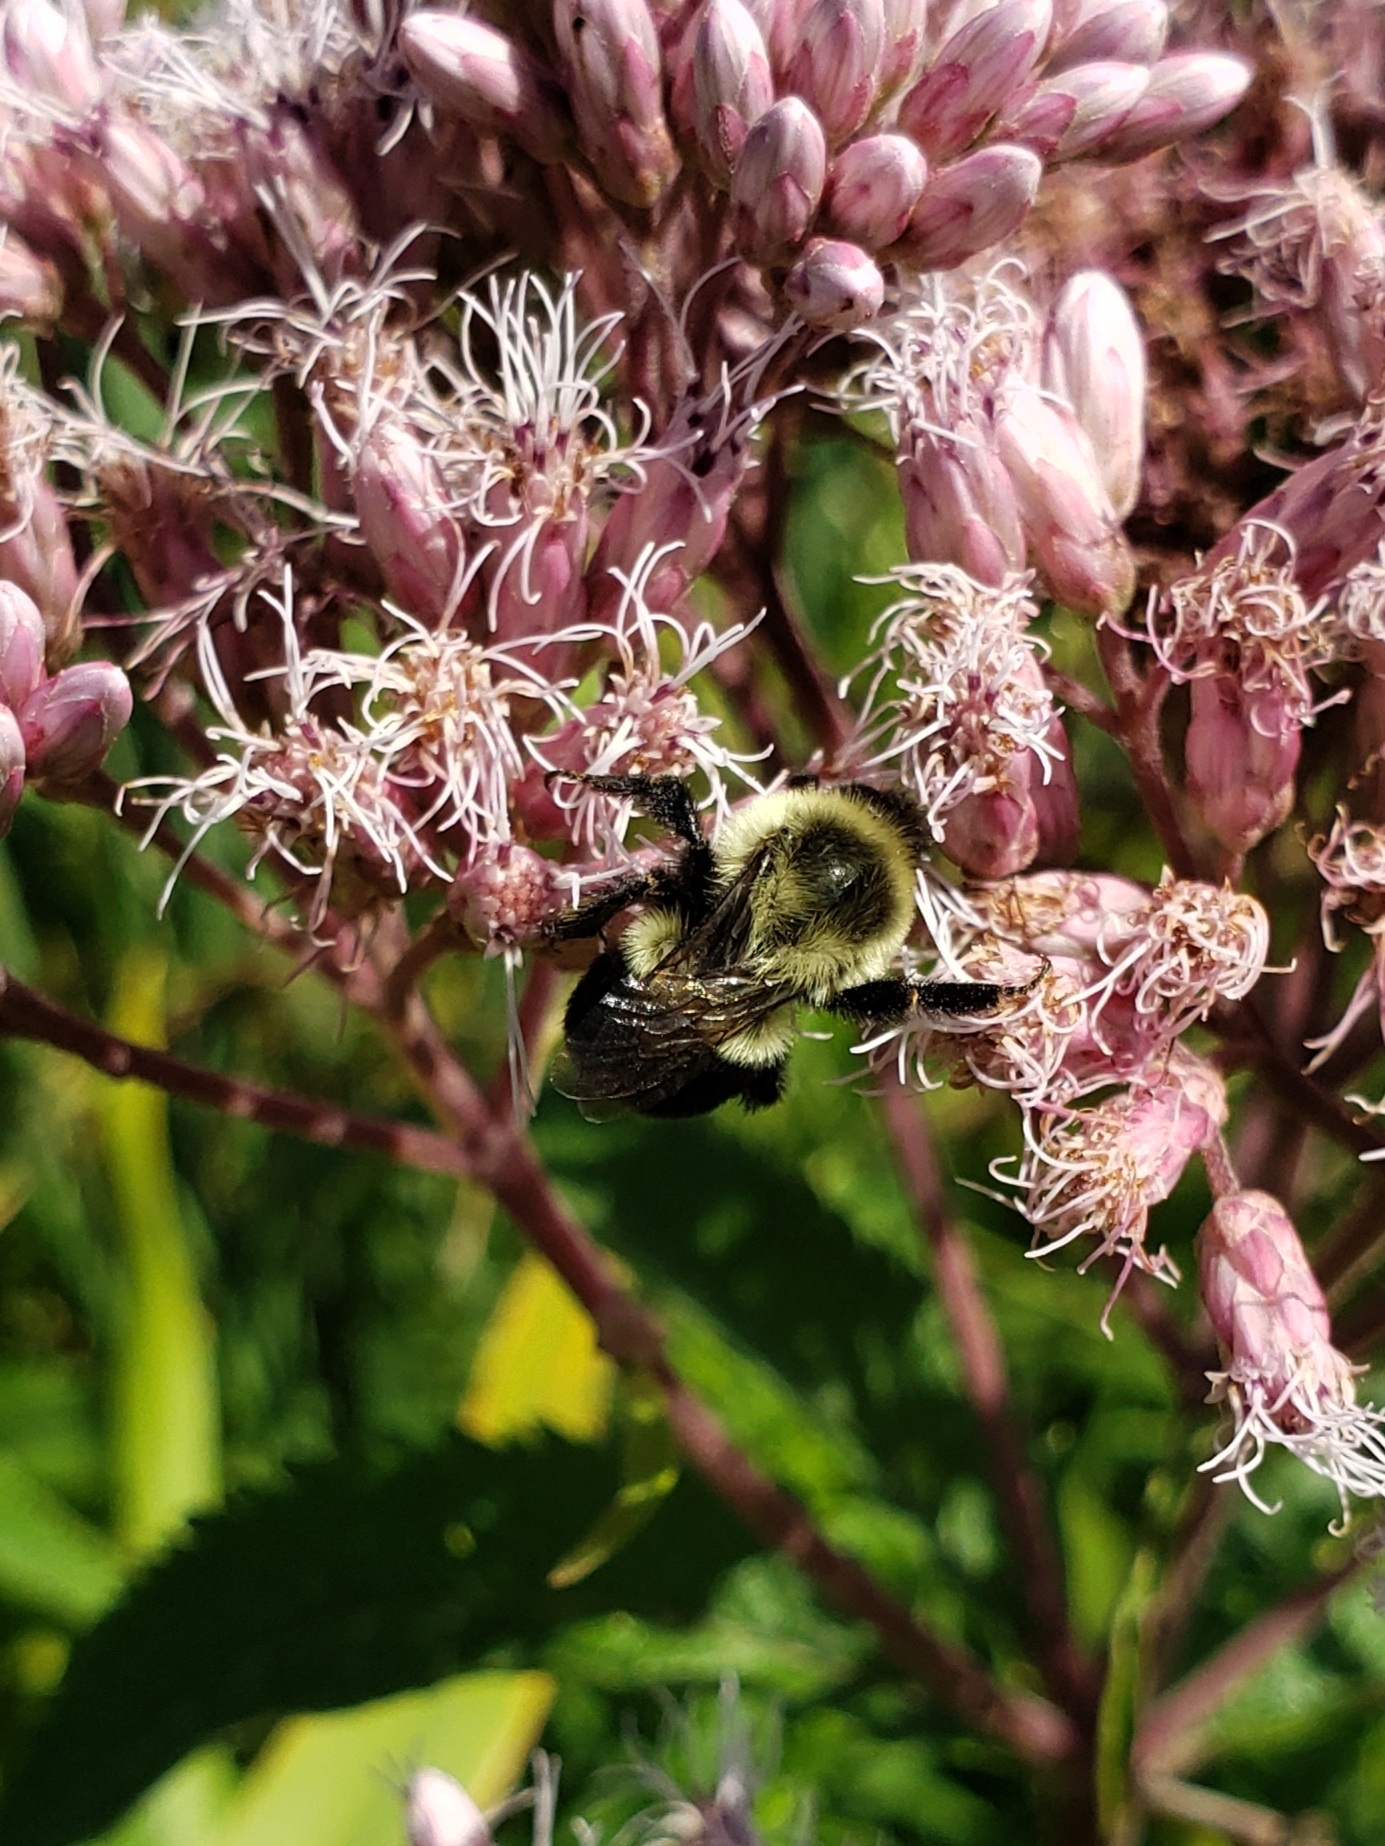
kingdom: Animalia
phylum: Arthropoda
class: Insecta
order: Hymenoptera
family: Apidae
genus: Bombus
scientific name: Bombus impatiens
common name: Common eastern bumble bee
